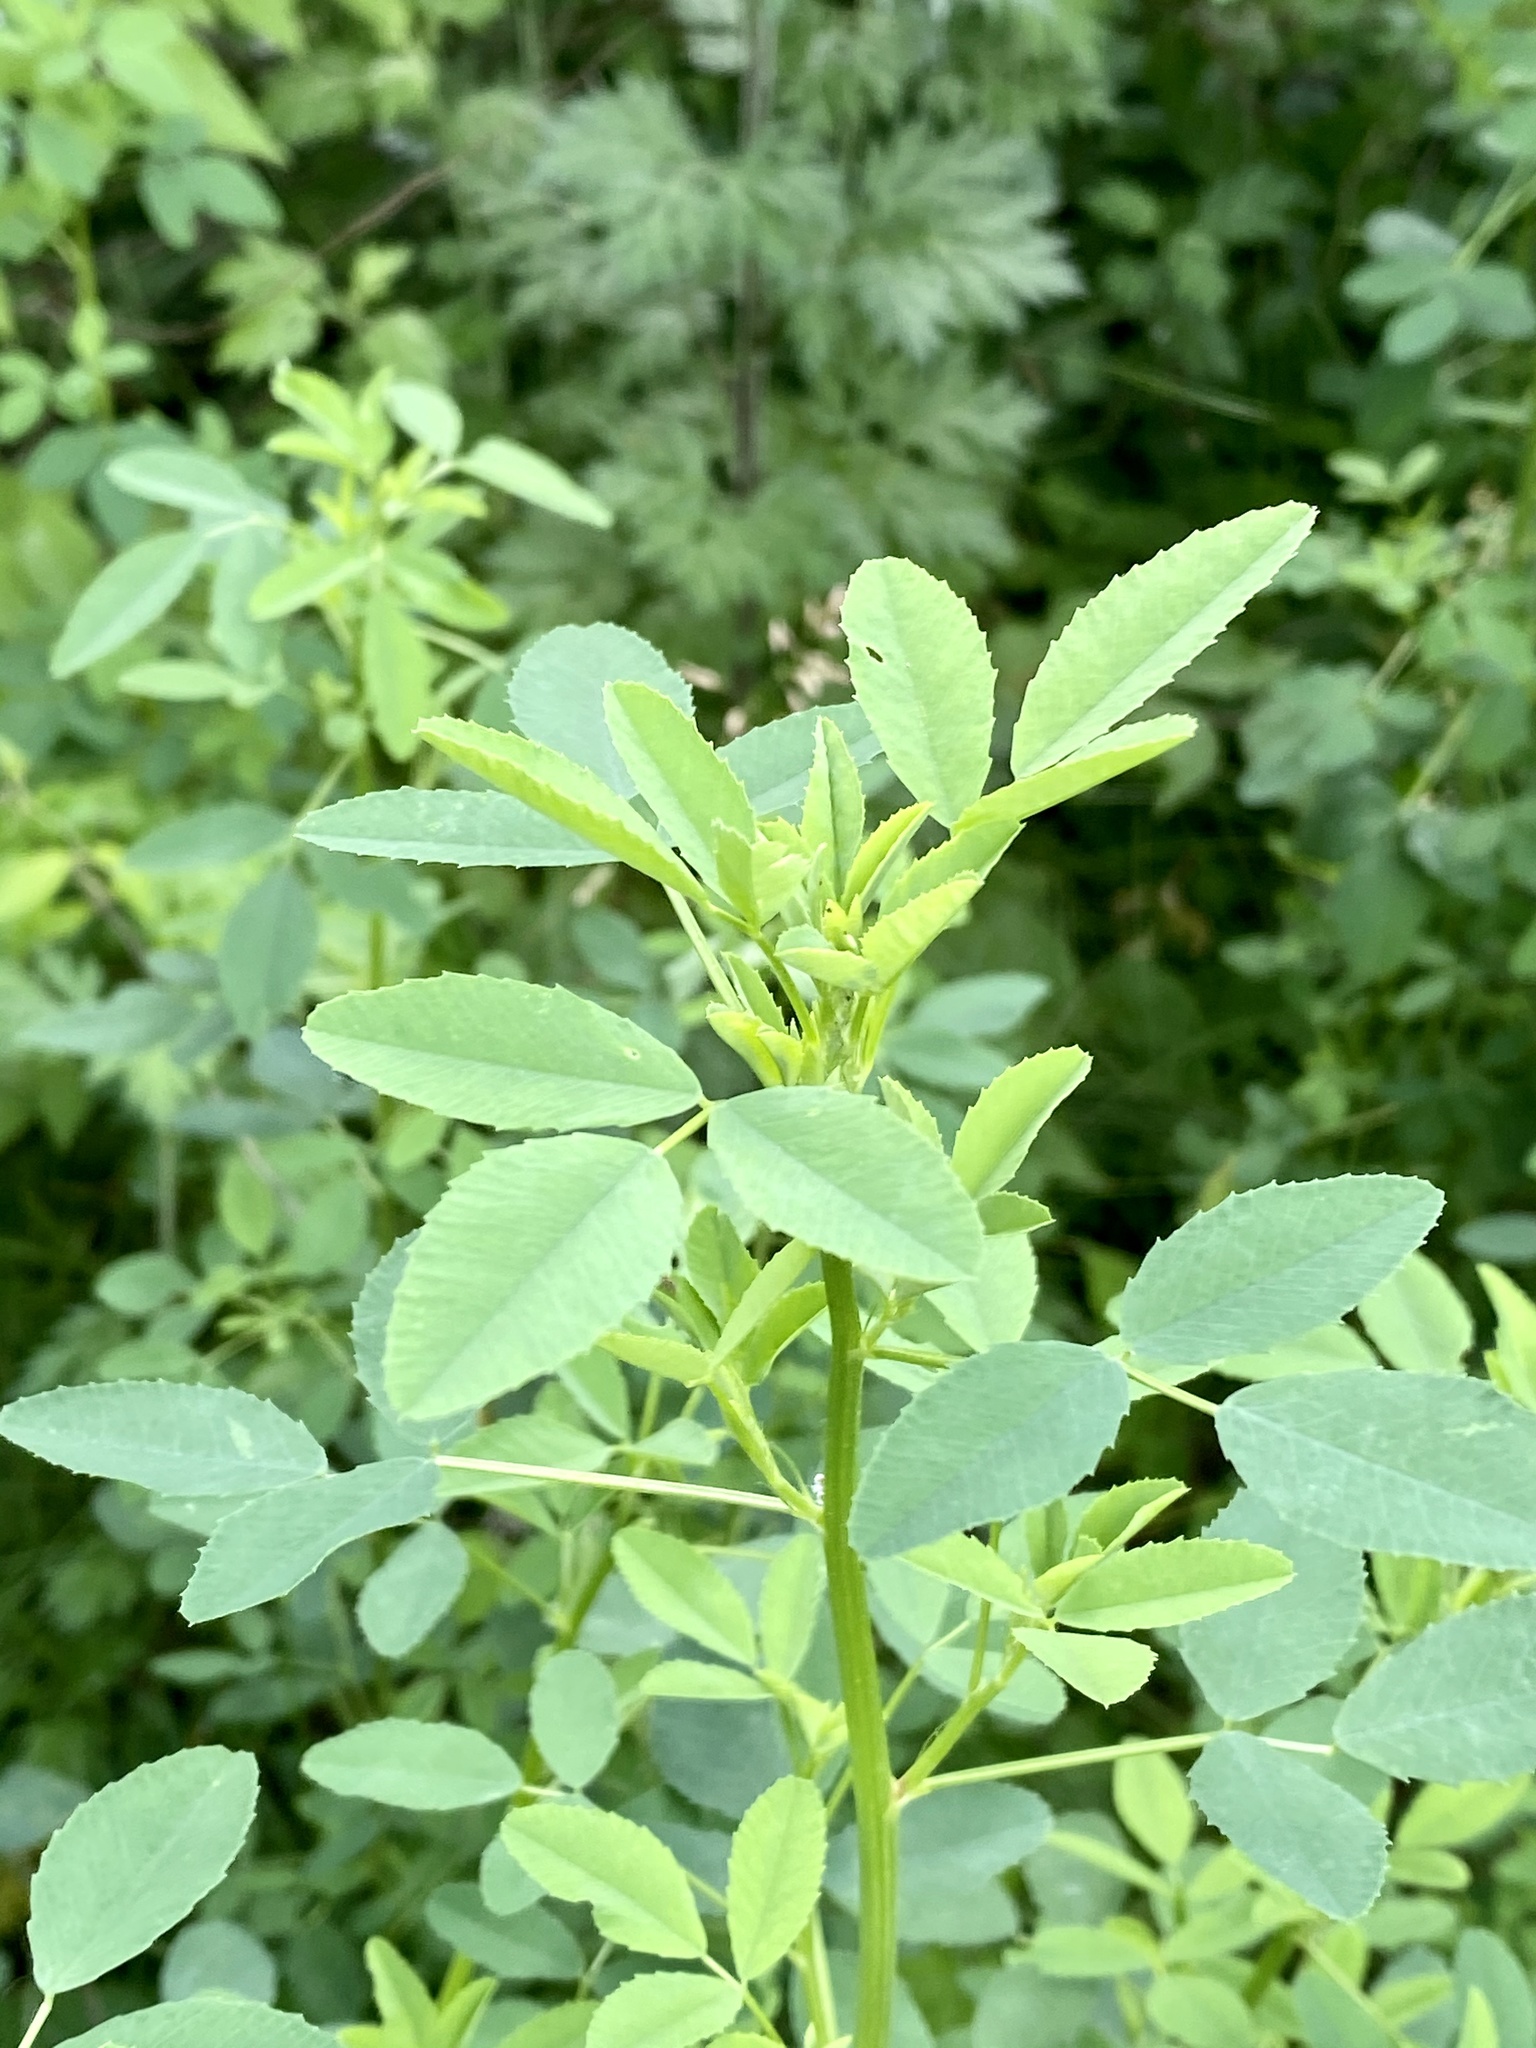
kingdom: Plantae
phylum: Tracheophyta
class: Magnoliopsida
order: Fabales
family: Fabaceae
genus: Melilotus
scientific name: Melilotus
